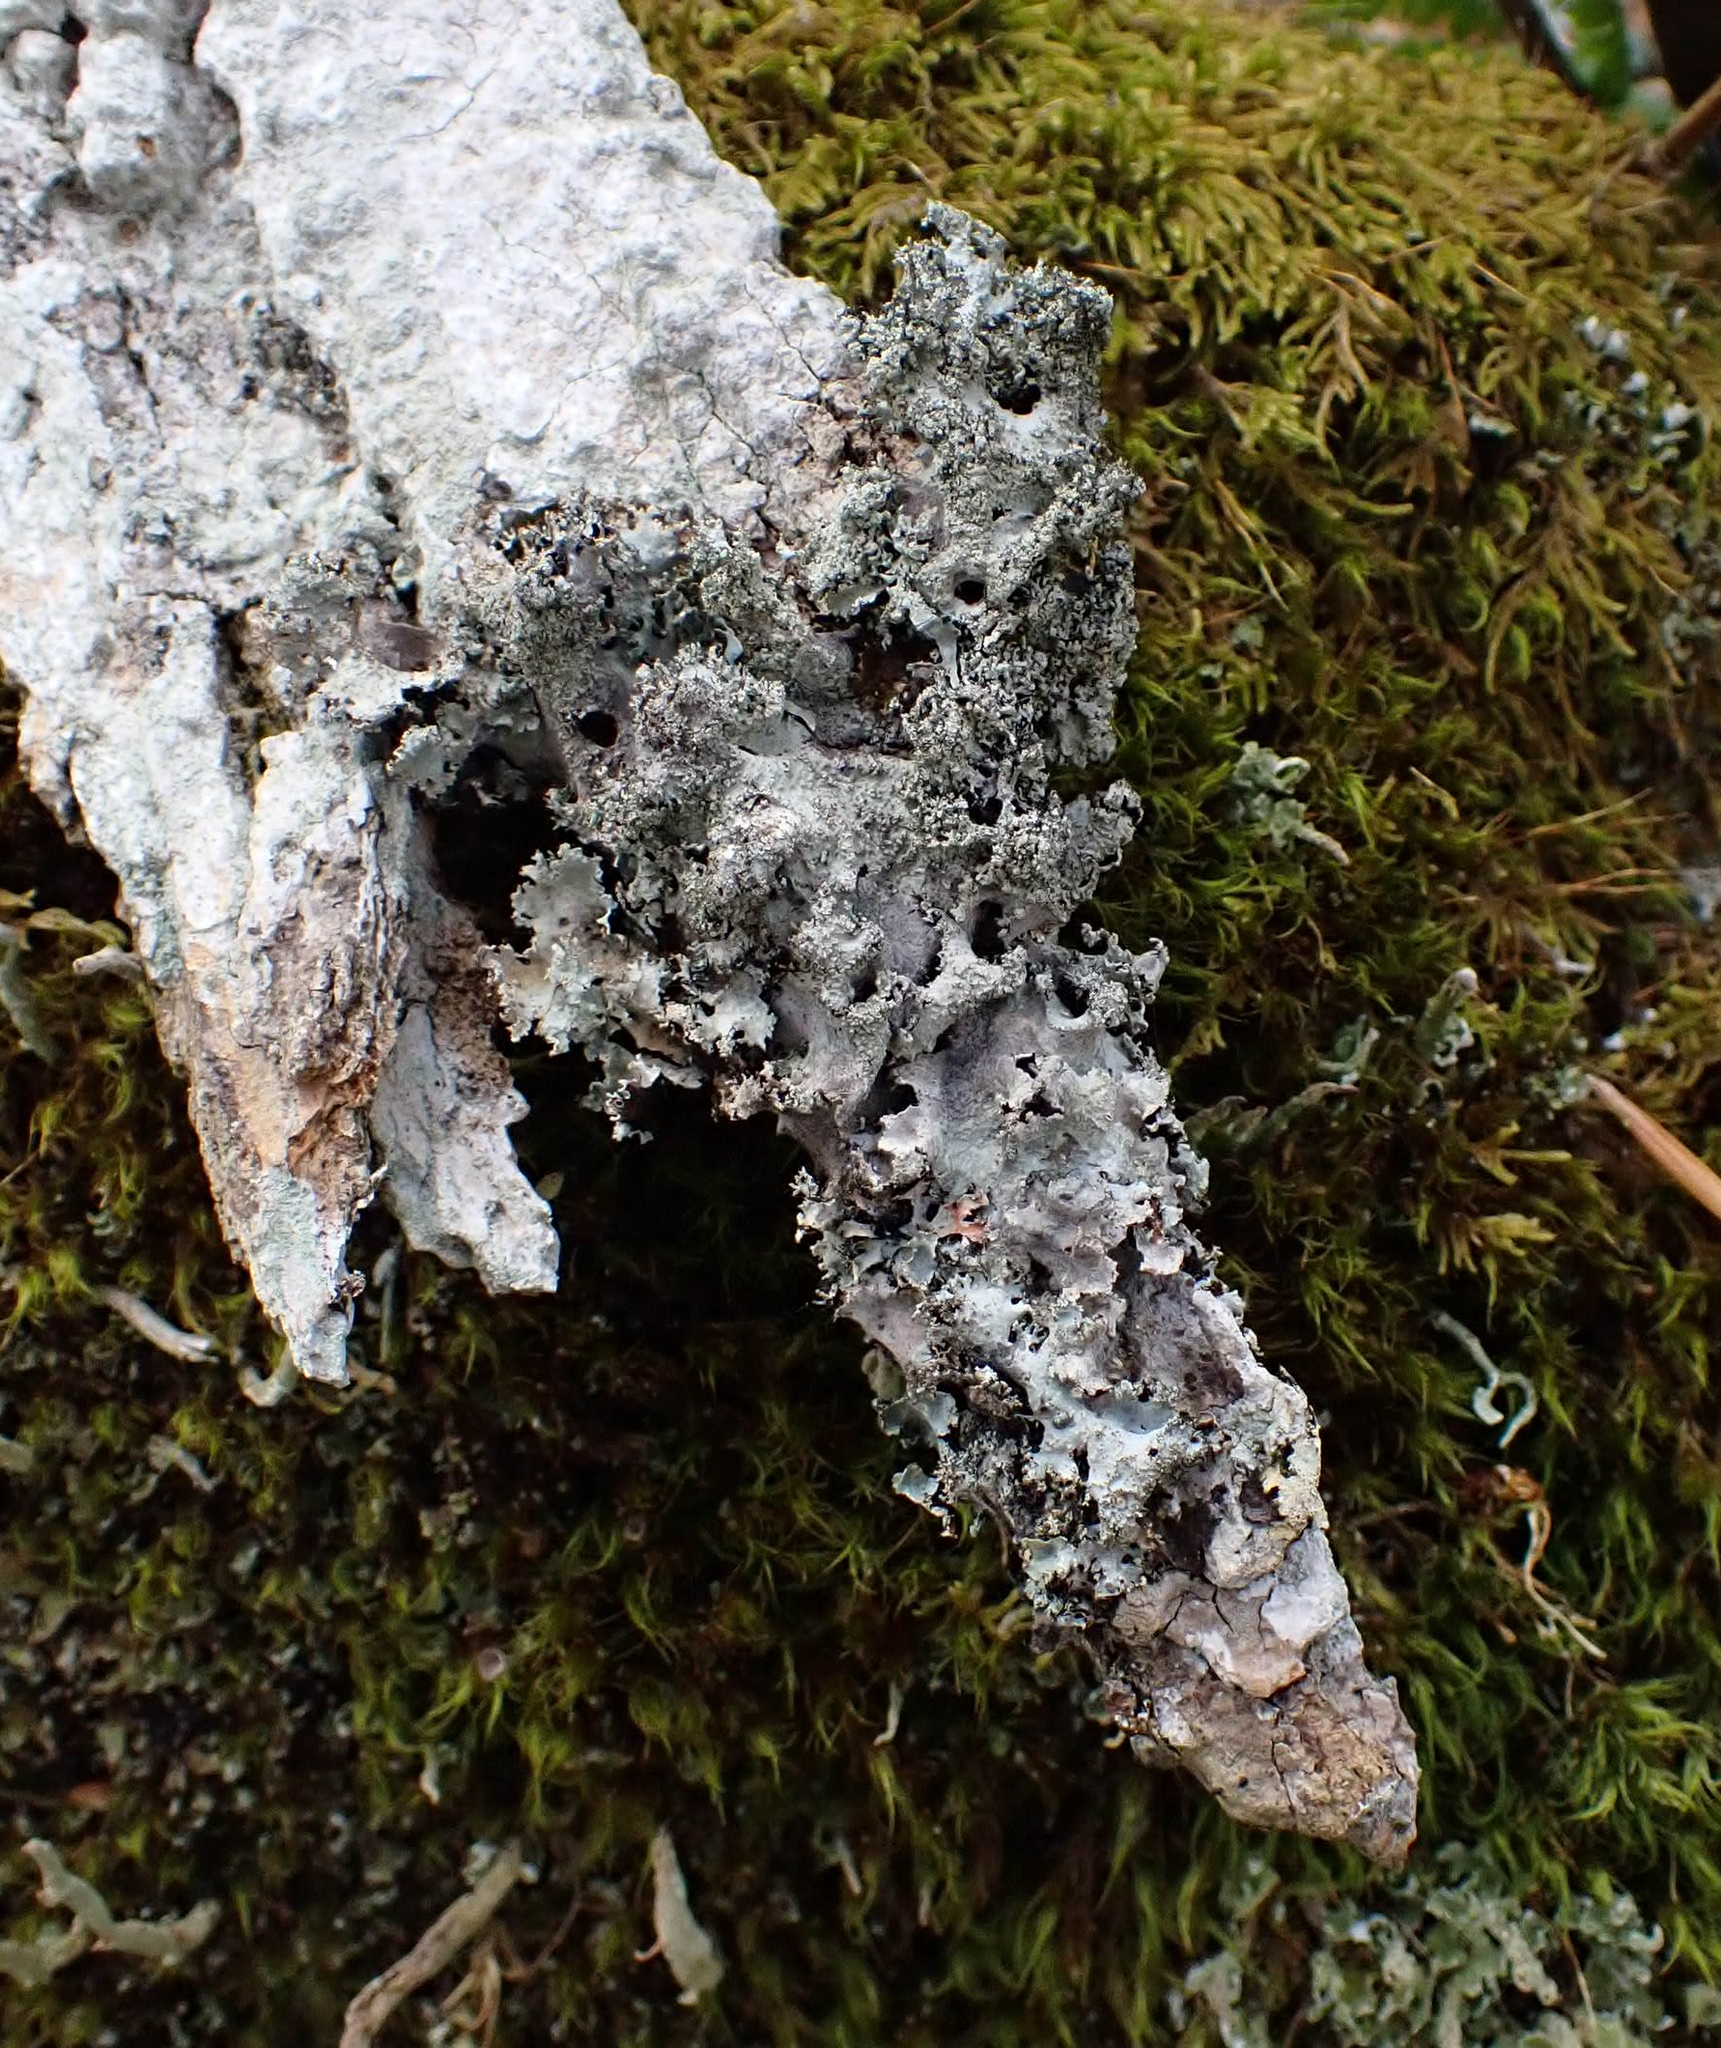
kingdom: Fungi
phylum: Ascomycota
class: Lecanoromycetes
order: Lecanorales
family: Parmeliaceae
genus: Parmotrema
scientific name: Parmotrema crinitum
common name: Salted ruffle lichen
